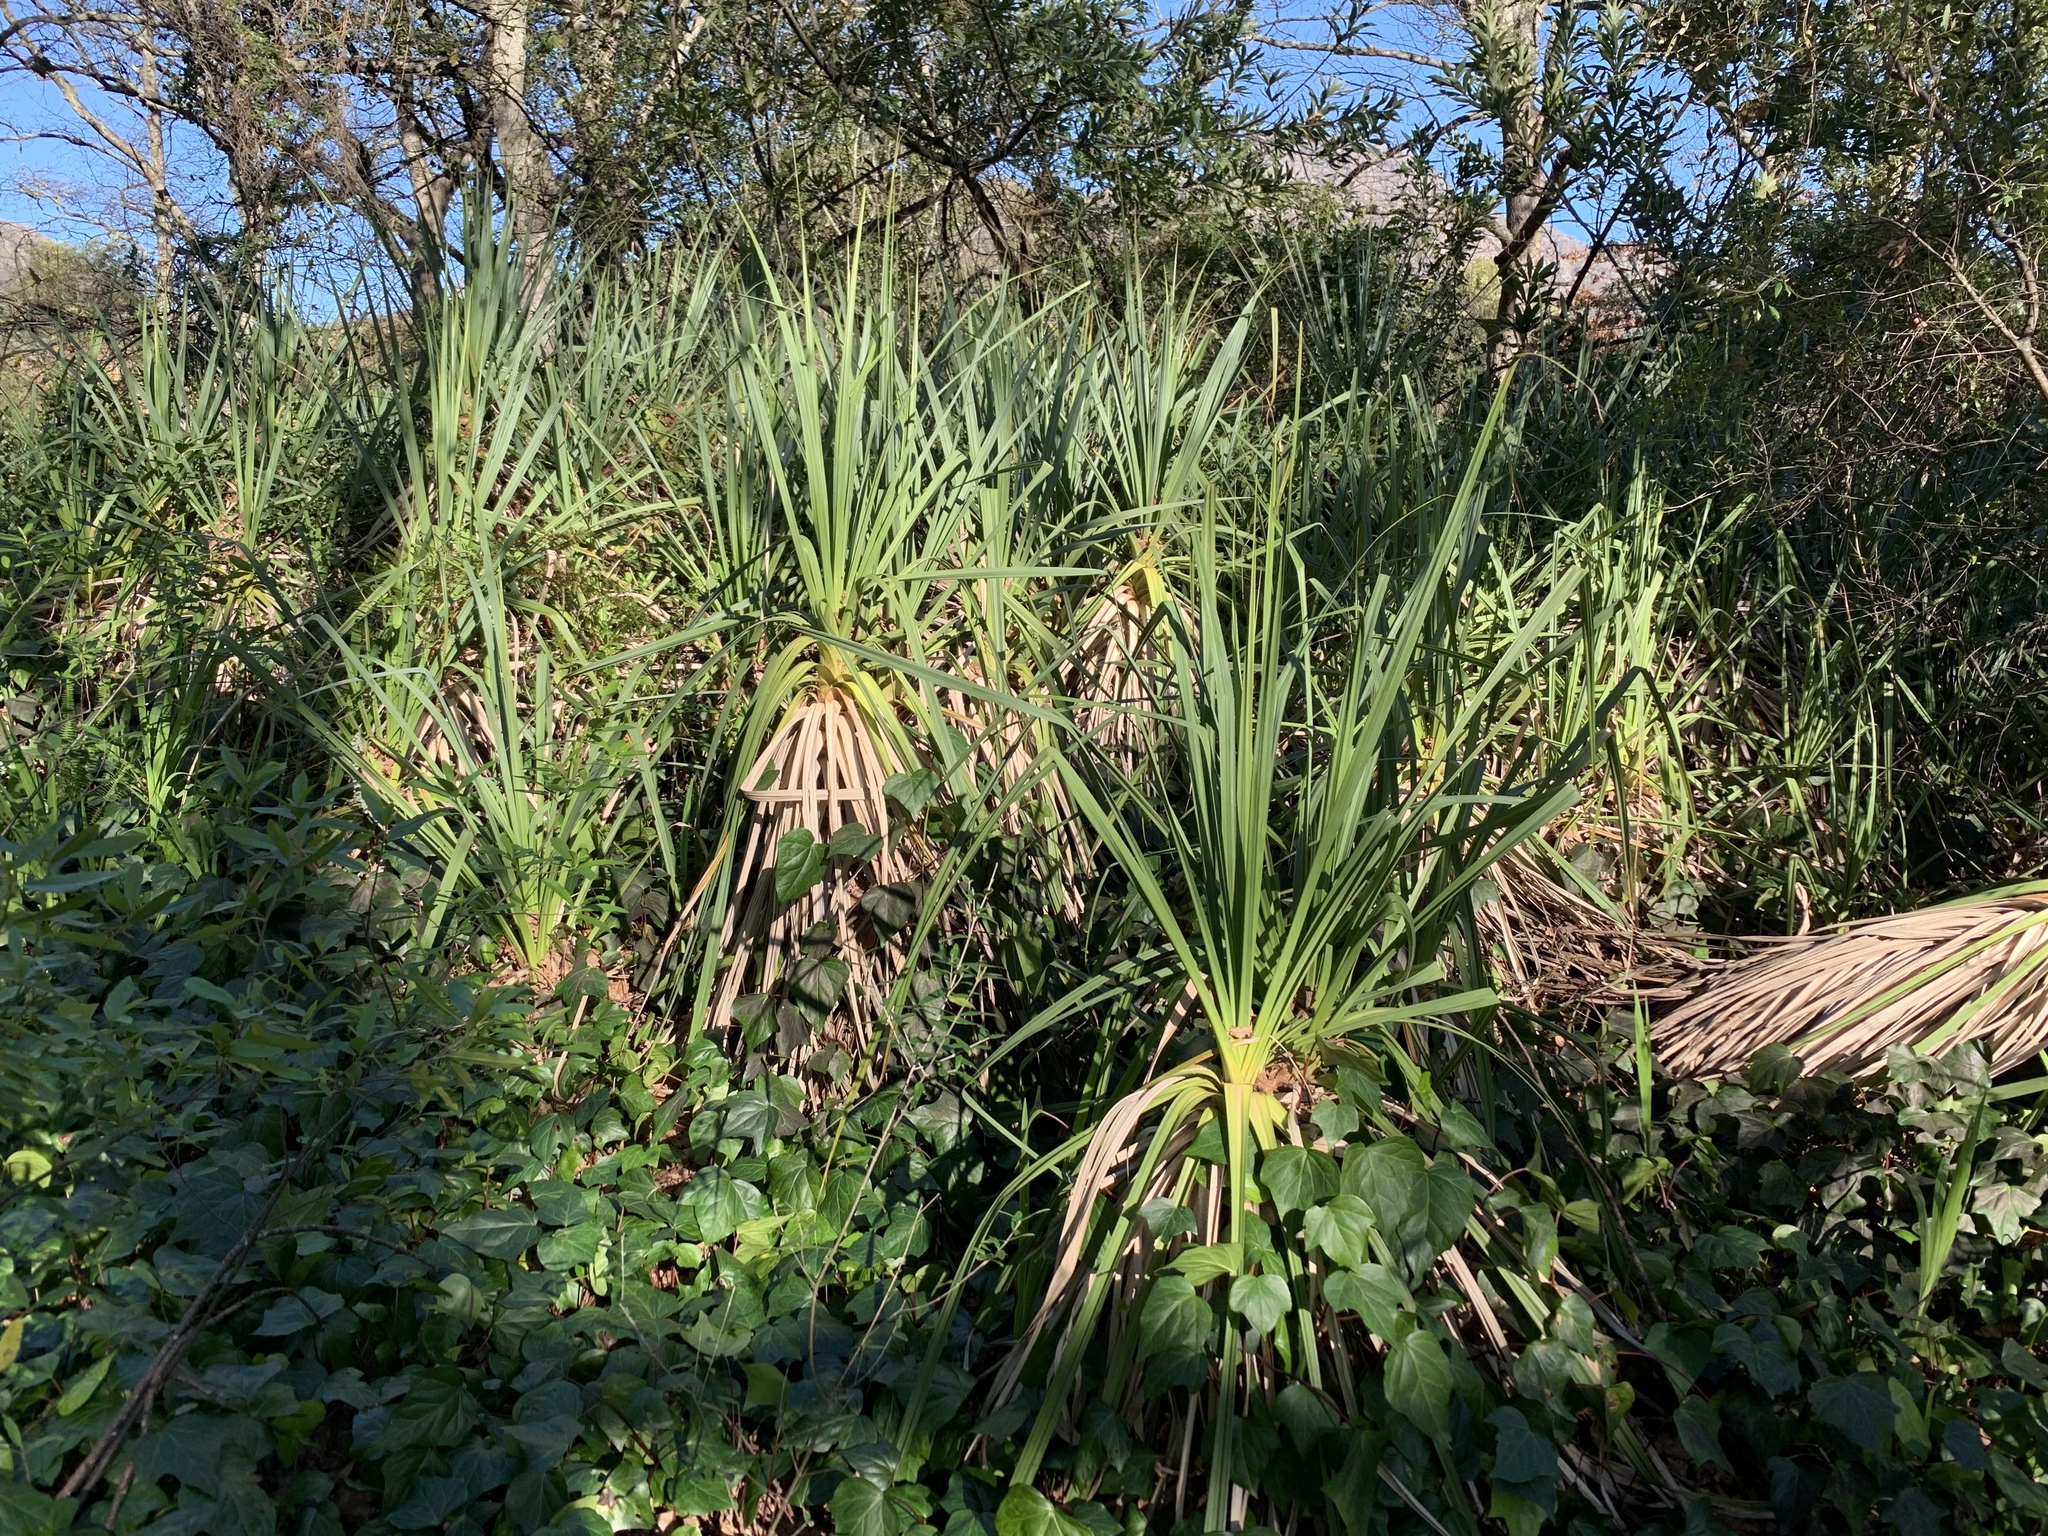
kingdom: Plantae
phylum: Tracheophyta
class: Liliopsida
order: Poales
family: Thurniaceae
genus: Prionium
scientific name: Prionium serratum
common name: Palmiet
